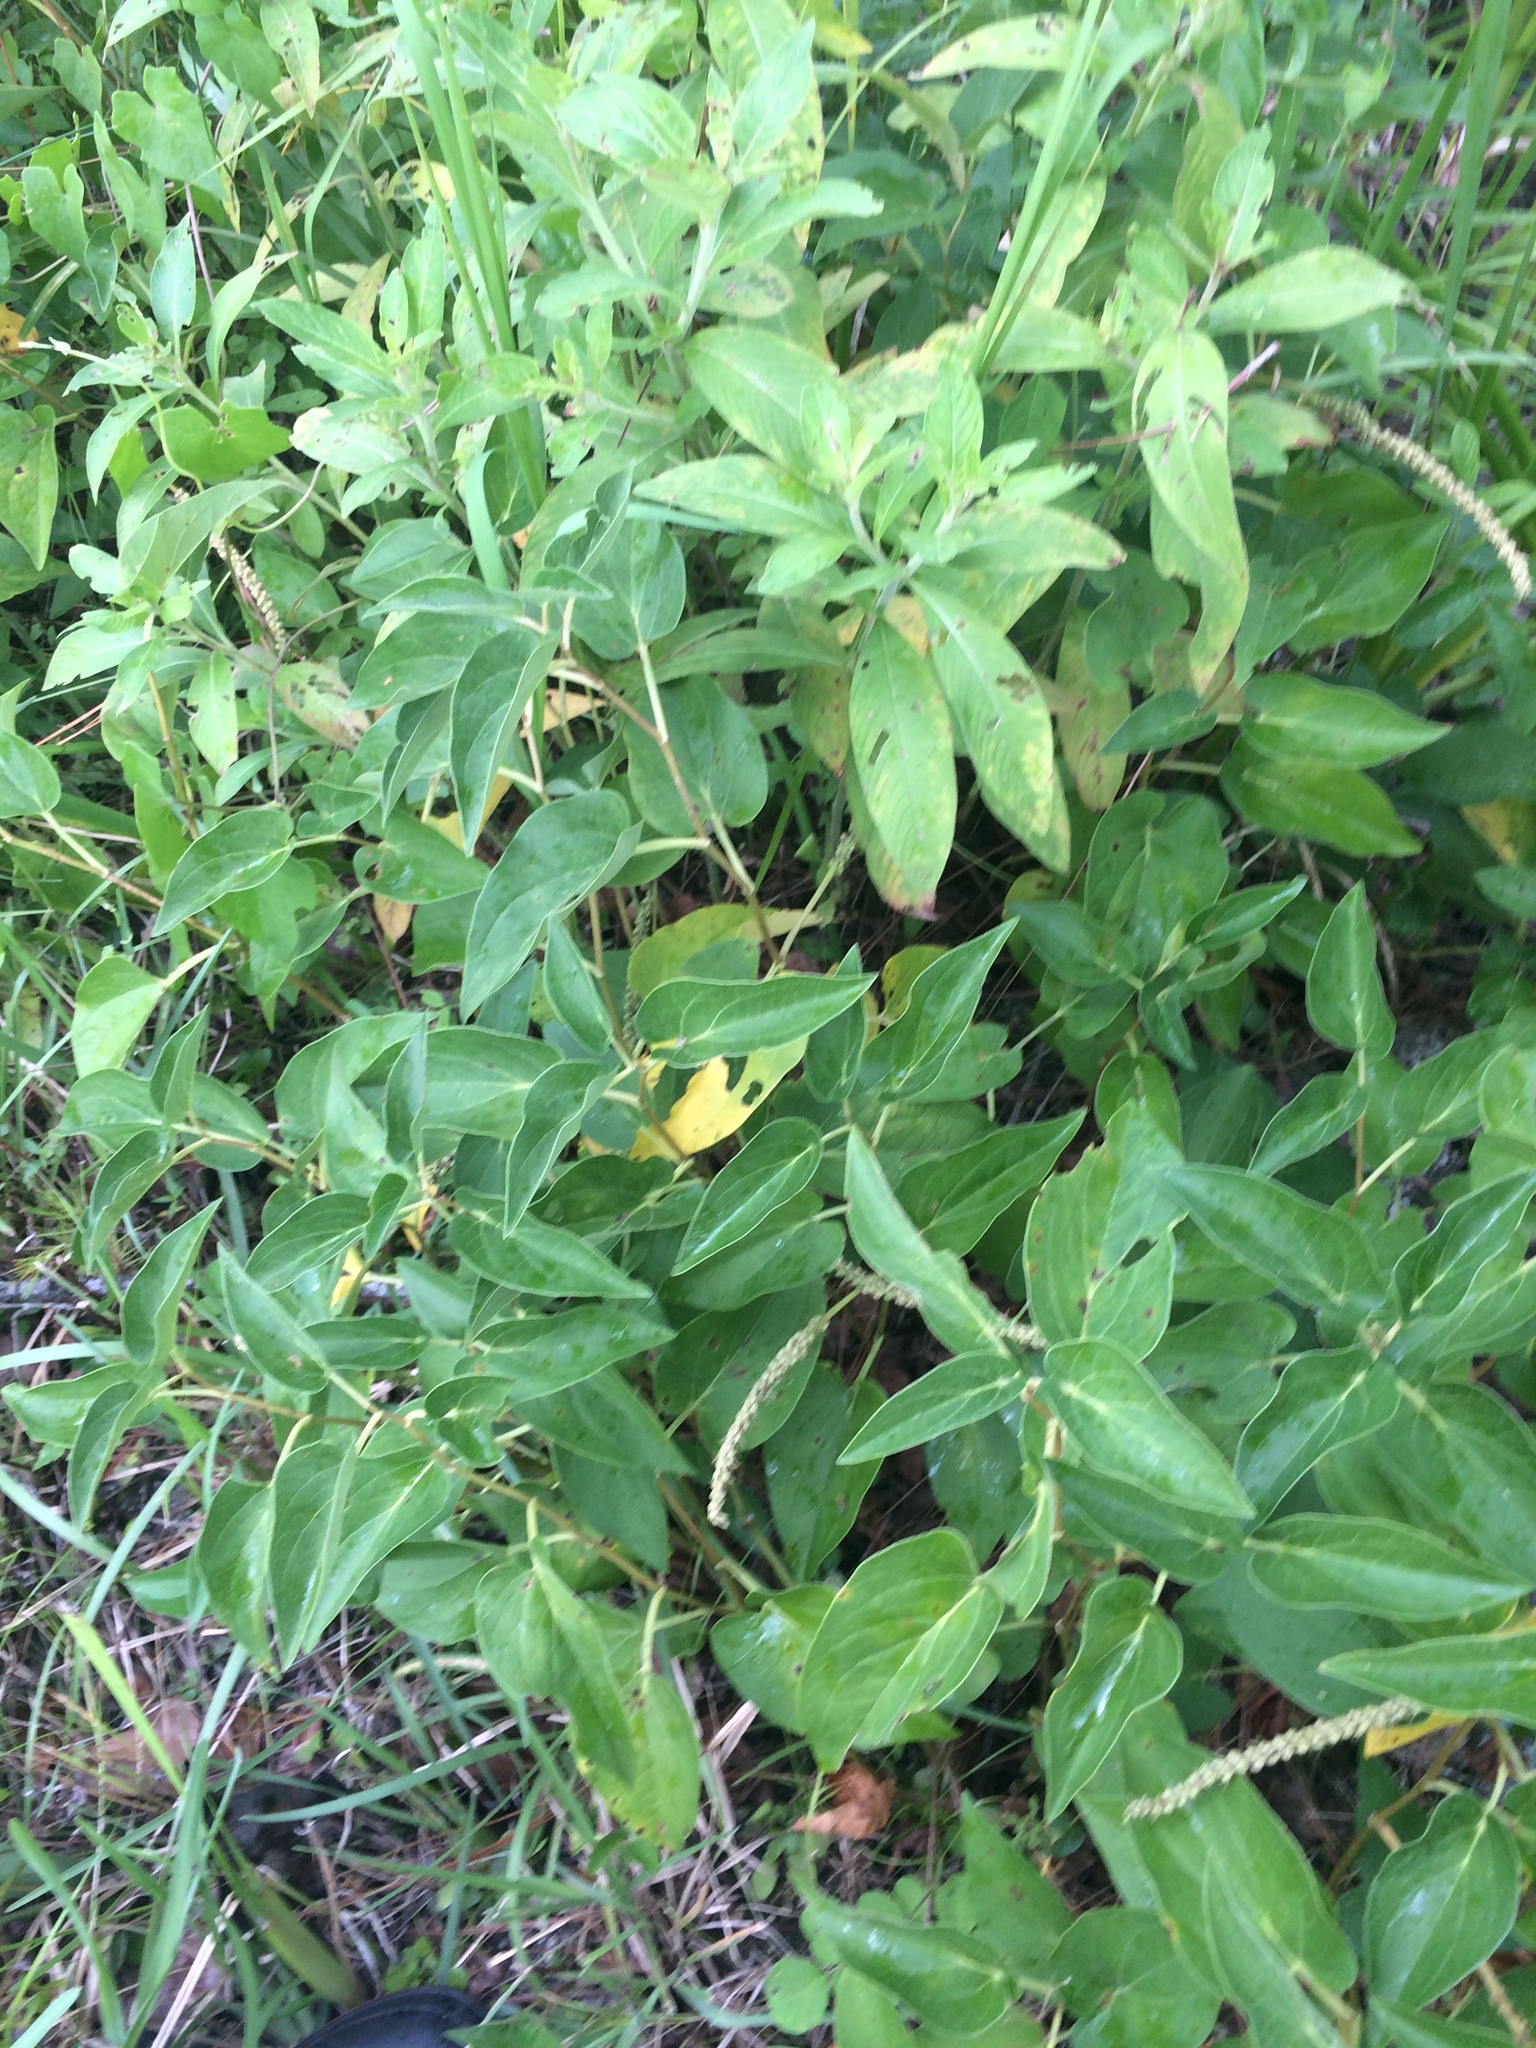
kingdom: Plantae
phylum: Tracheophyta
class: Magnoliopsida
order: Piperales
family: Saururaceae
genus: Saururus
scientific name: Saururus cernuus
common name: Lizard's-tail
